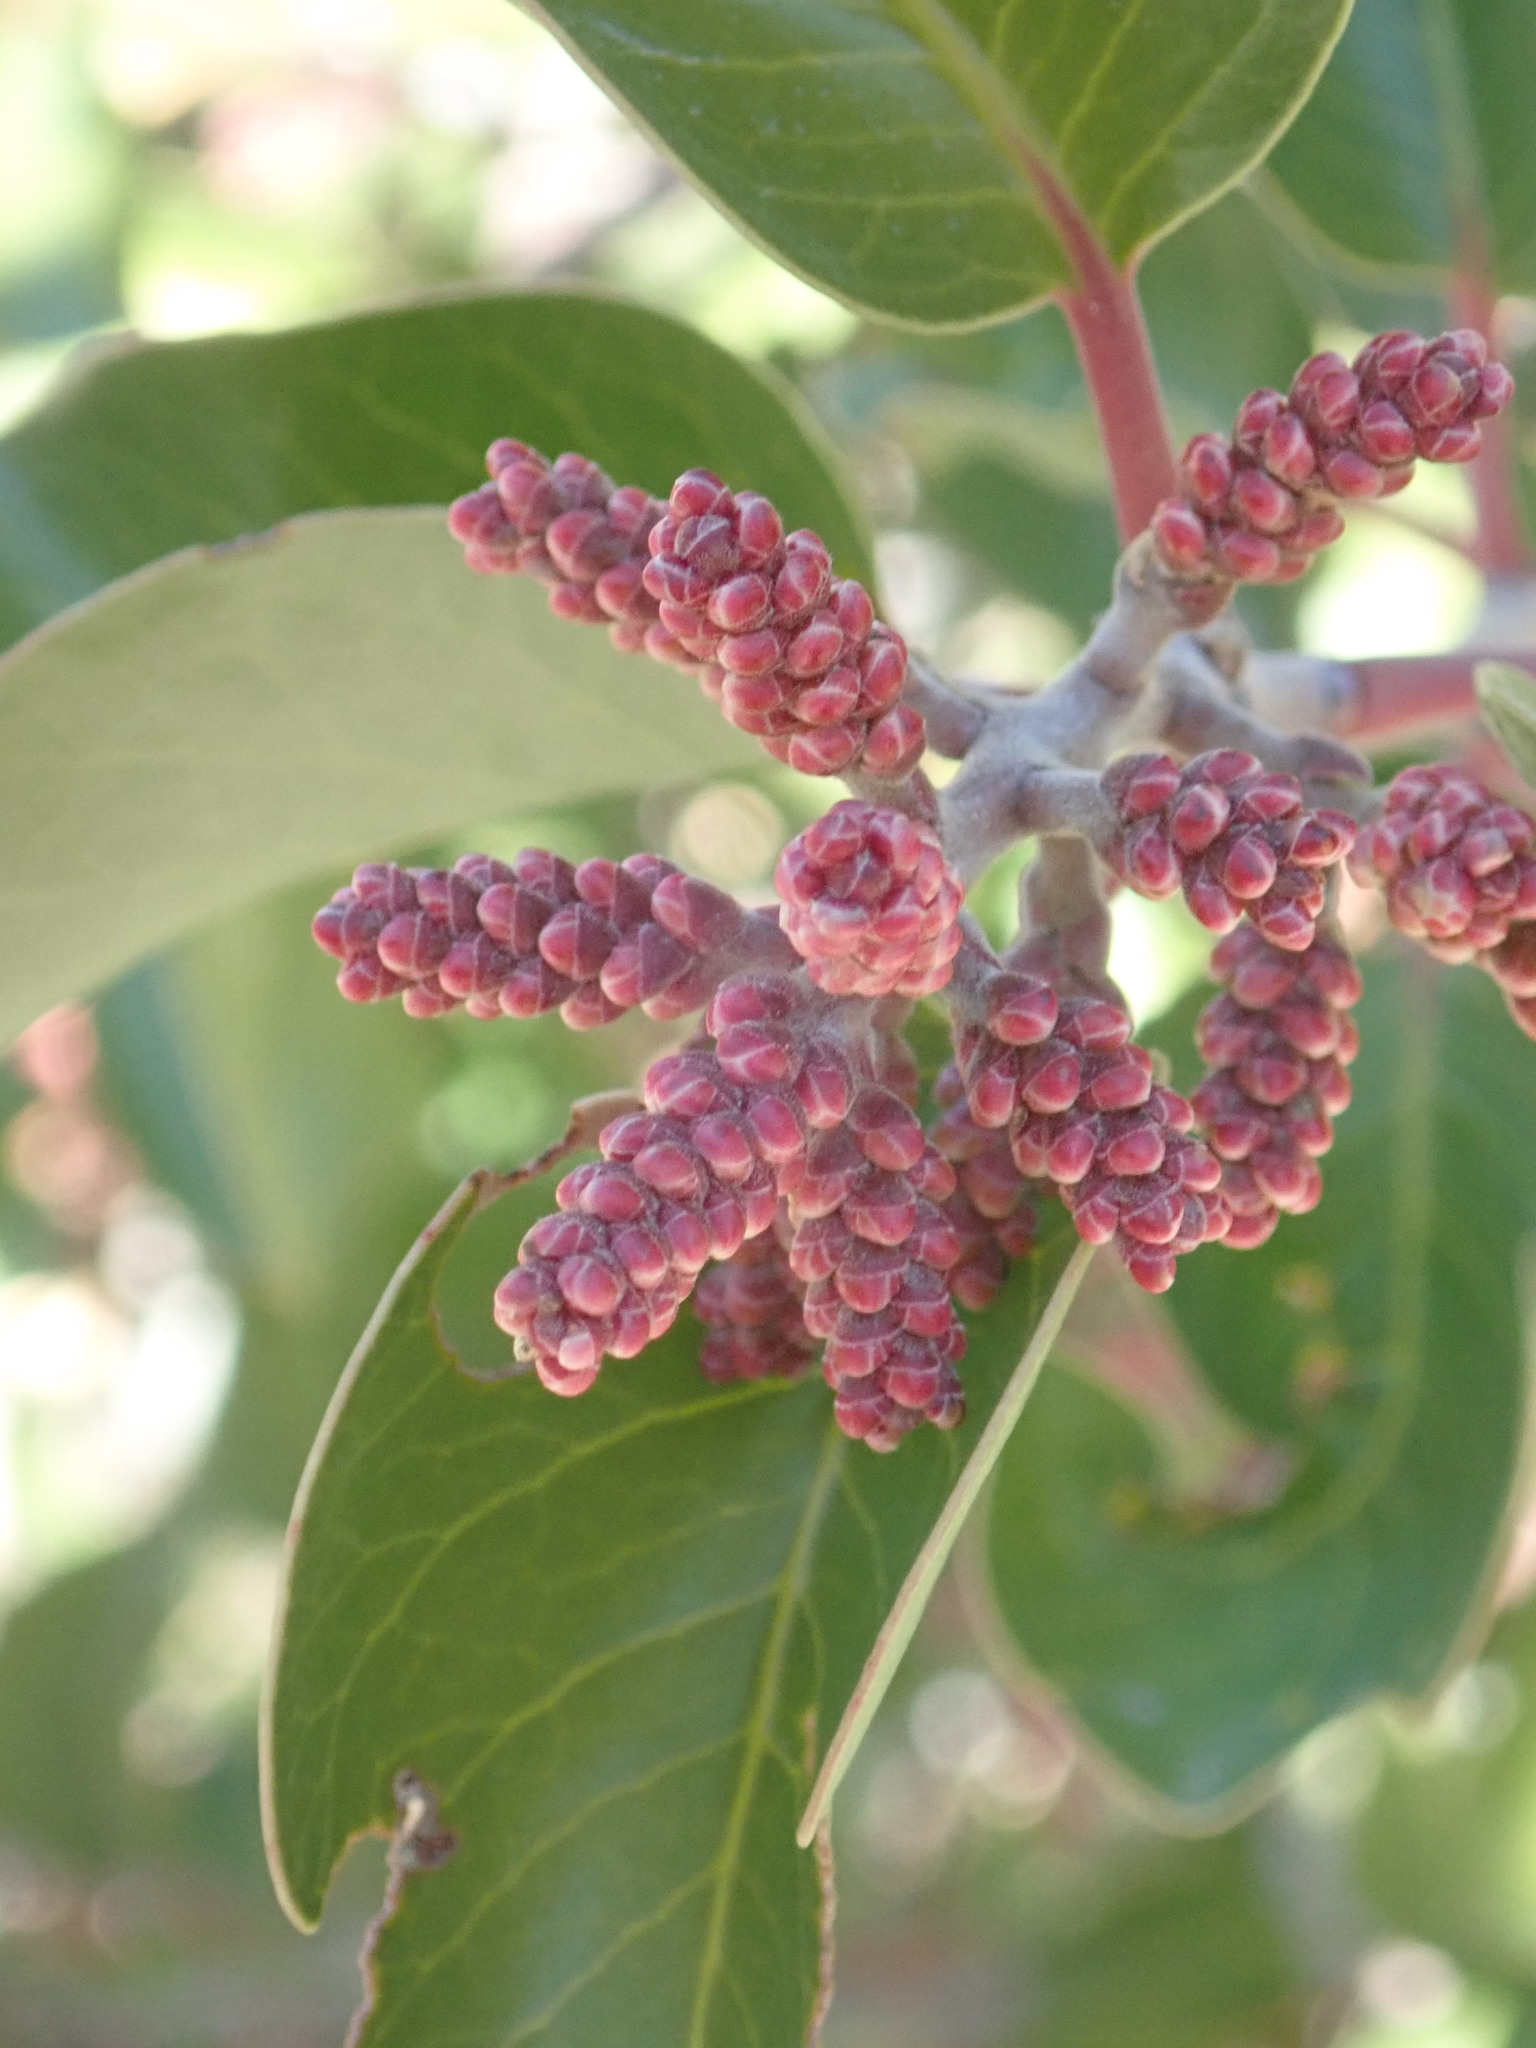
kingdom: Plantae
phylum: Tracheophyta
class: Magnoliopsida
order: Sapindales
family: Anacardiaceae
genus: Rhus
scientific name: Rhus ovata
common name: Sugar sumac
